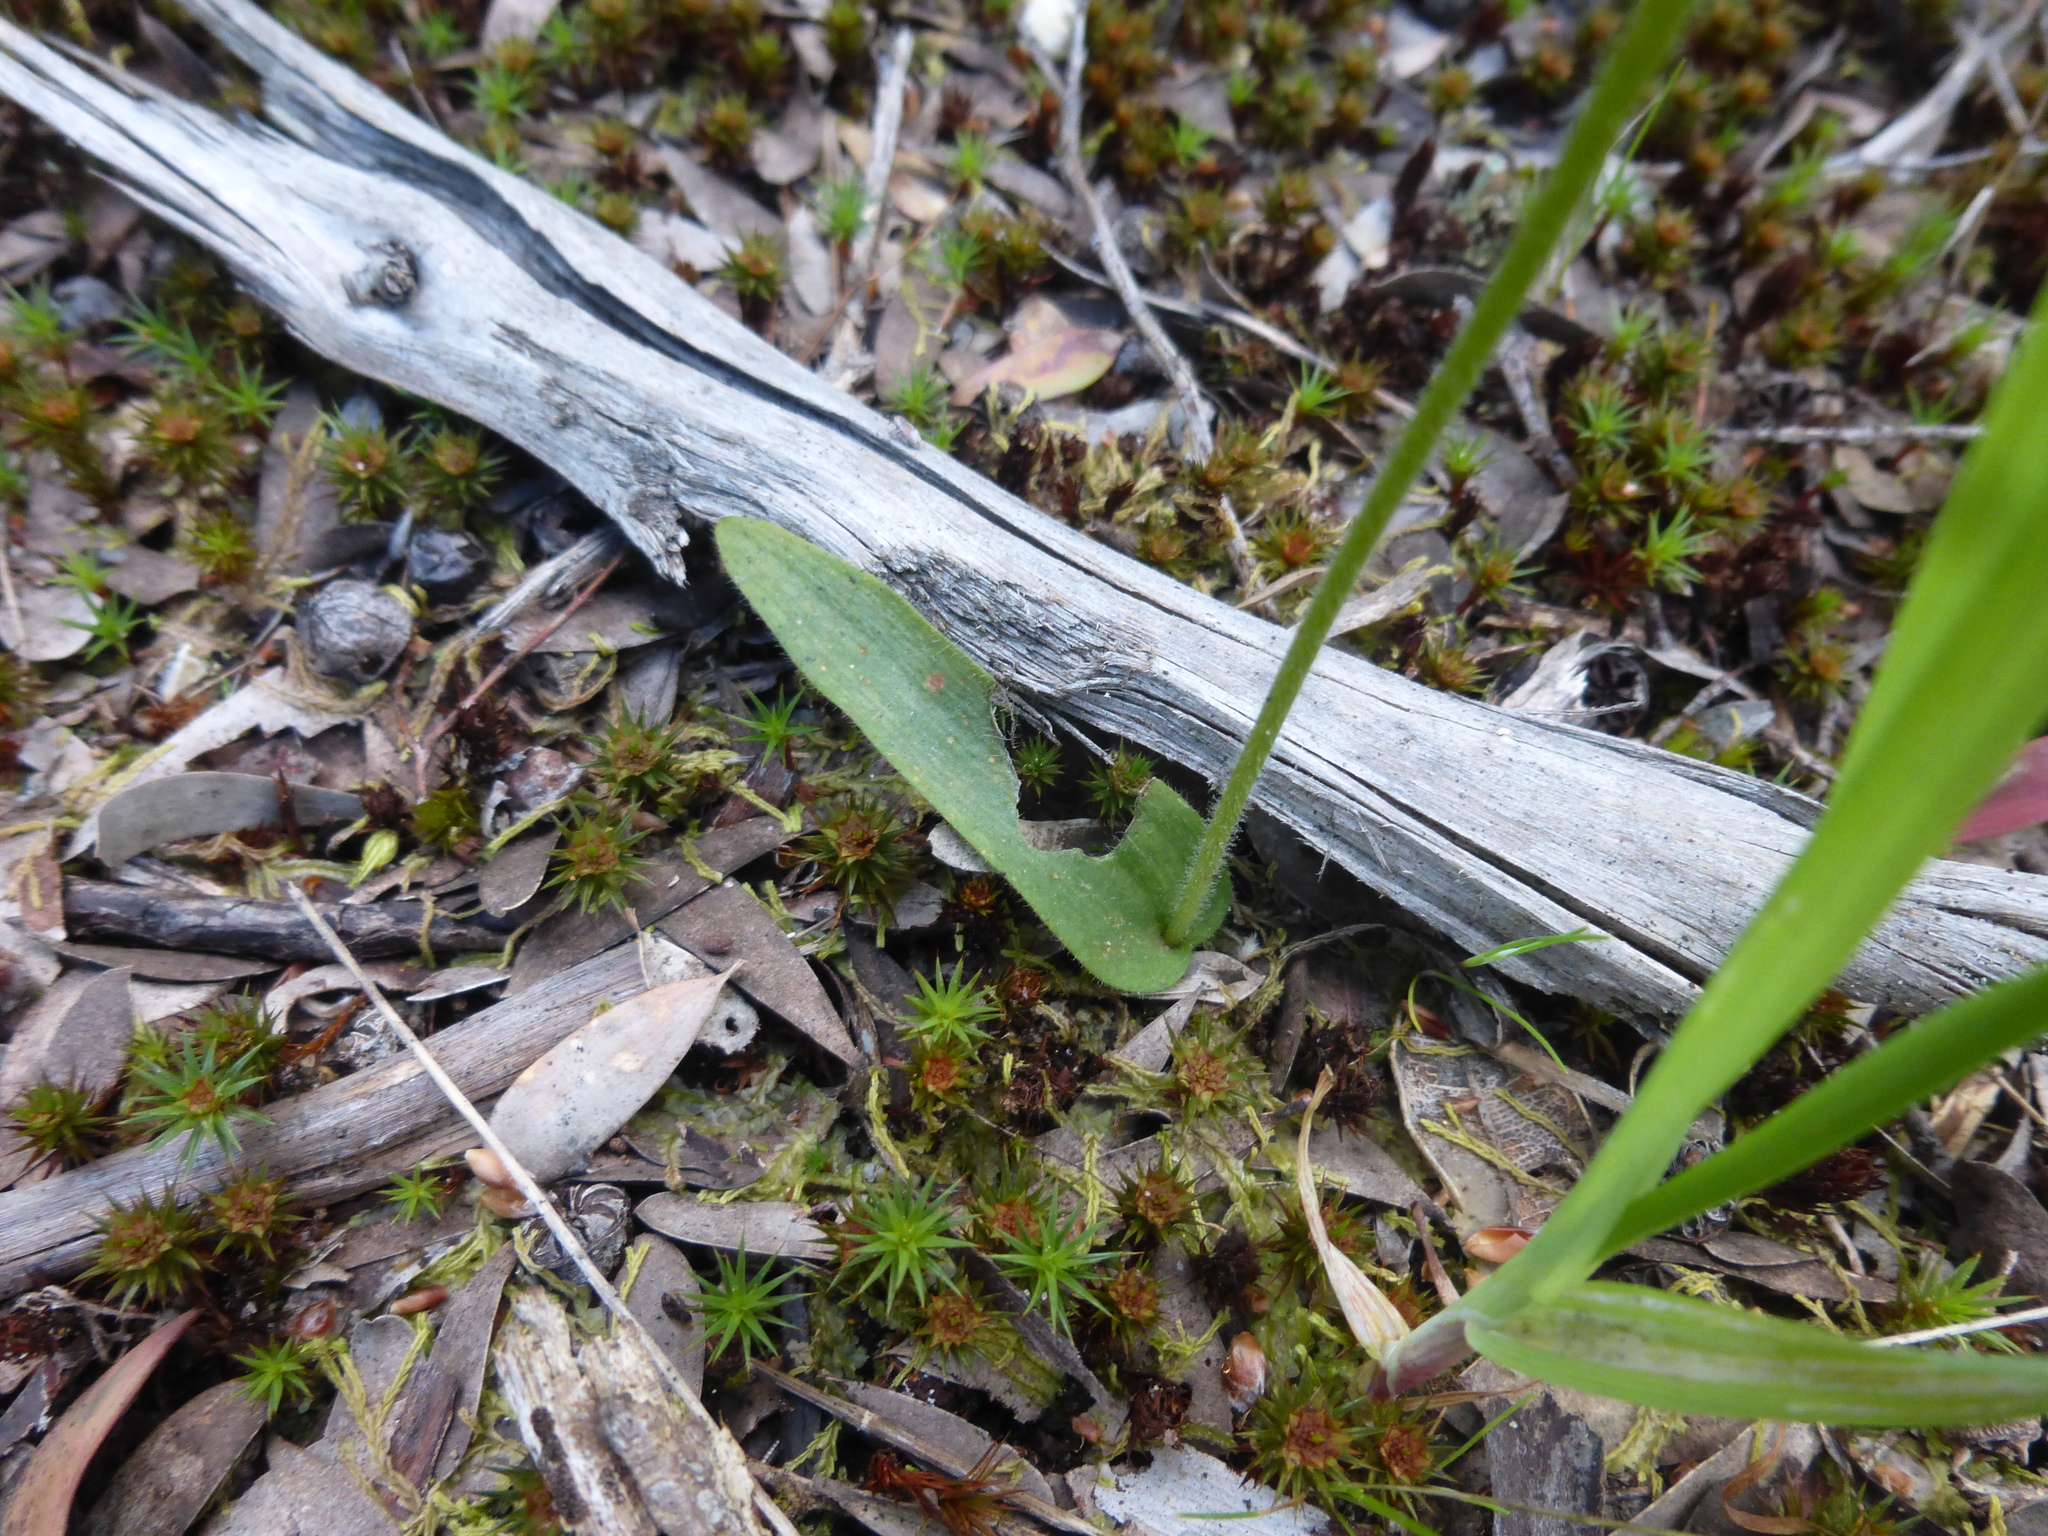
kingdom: Plantae
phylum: Tracheophyta
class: Liliopsida
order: Asparagales
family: Orchidaceae
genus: Caladenia
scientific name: Caladenia major
